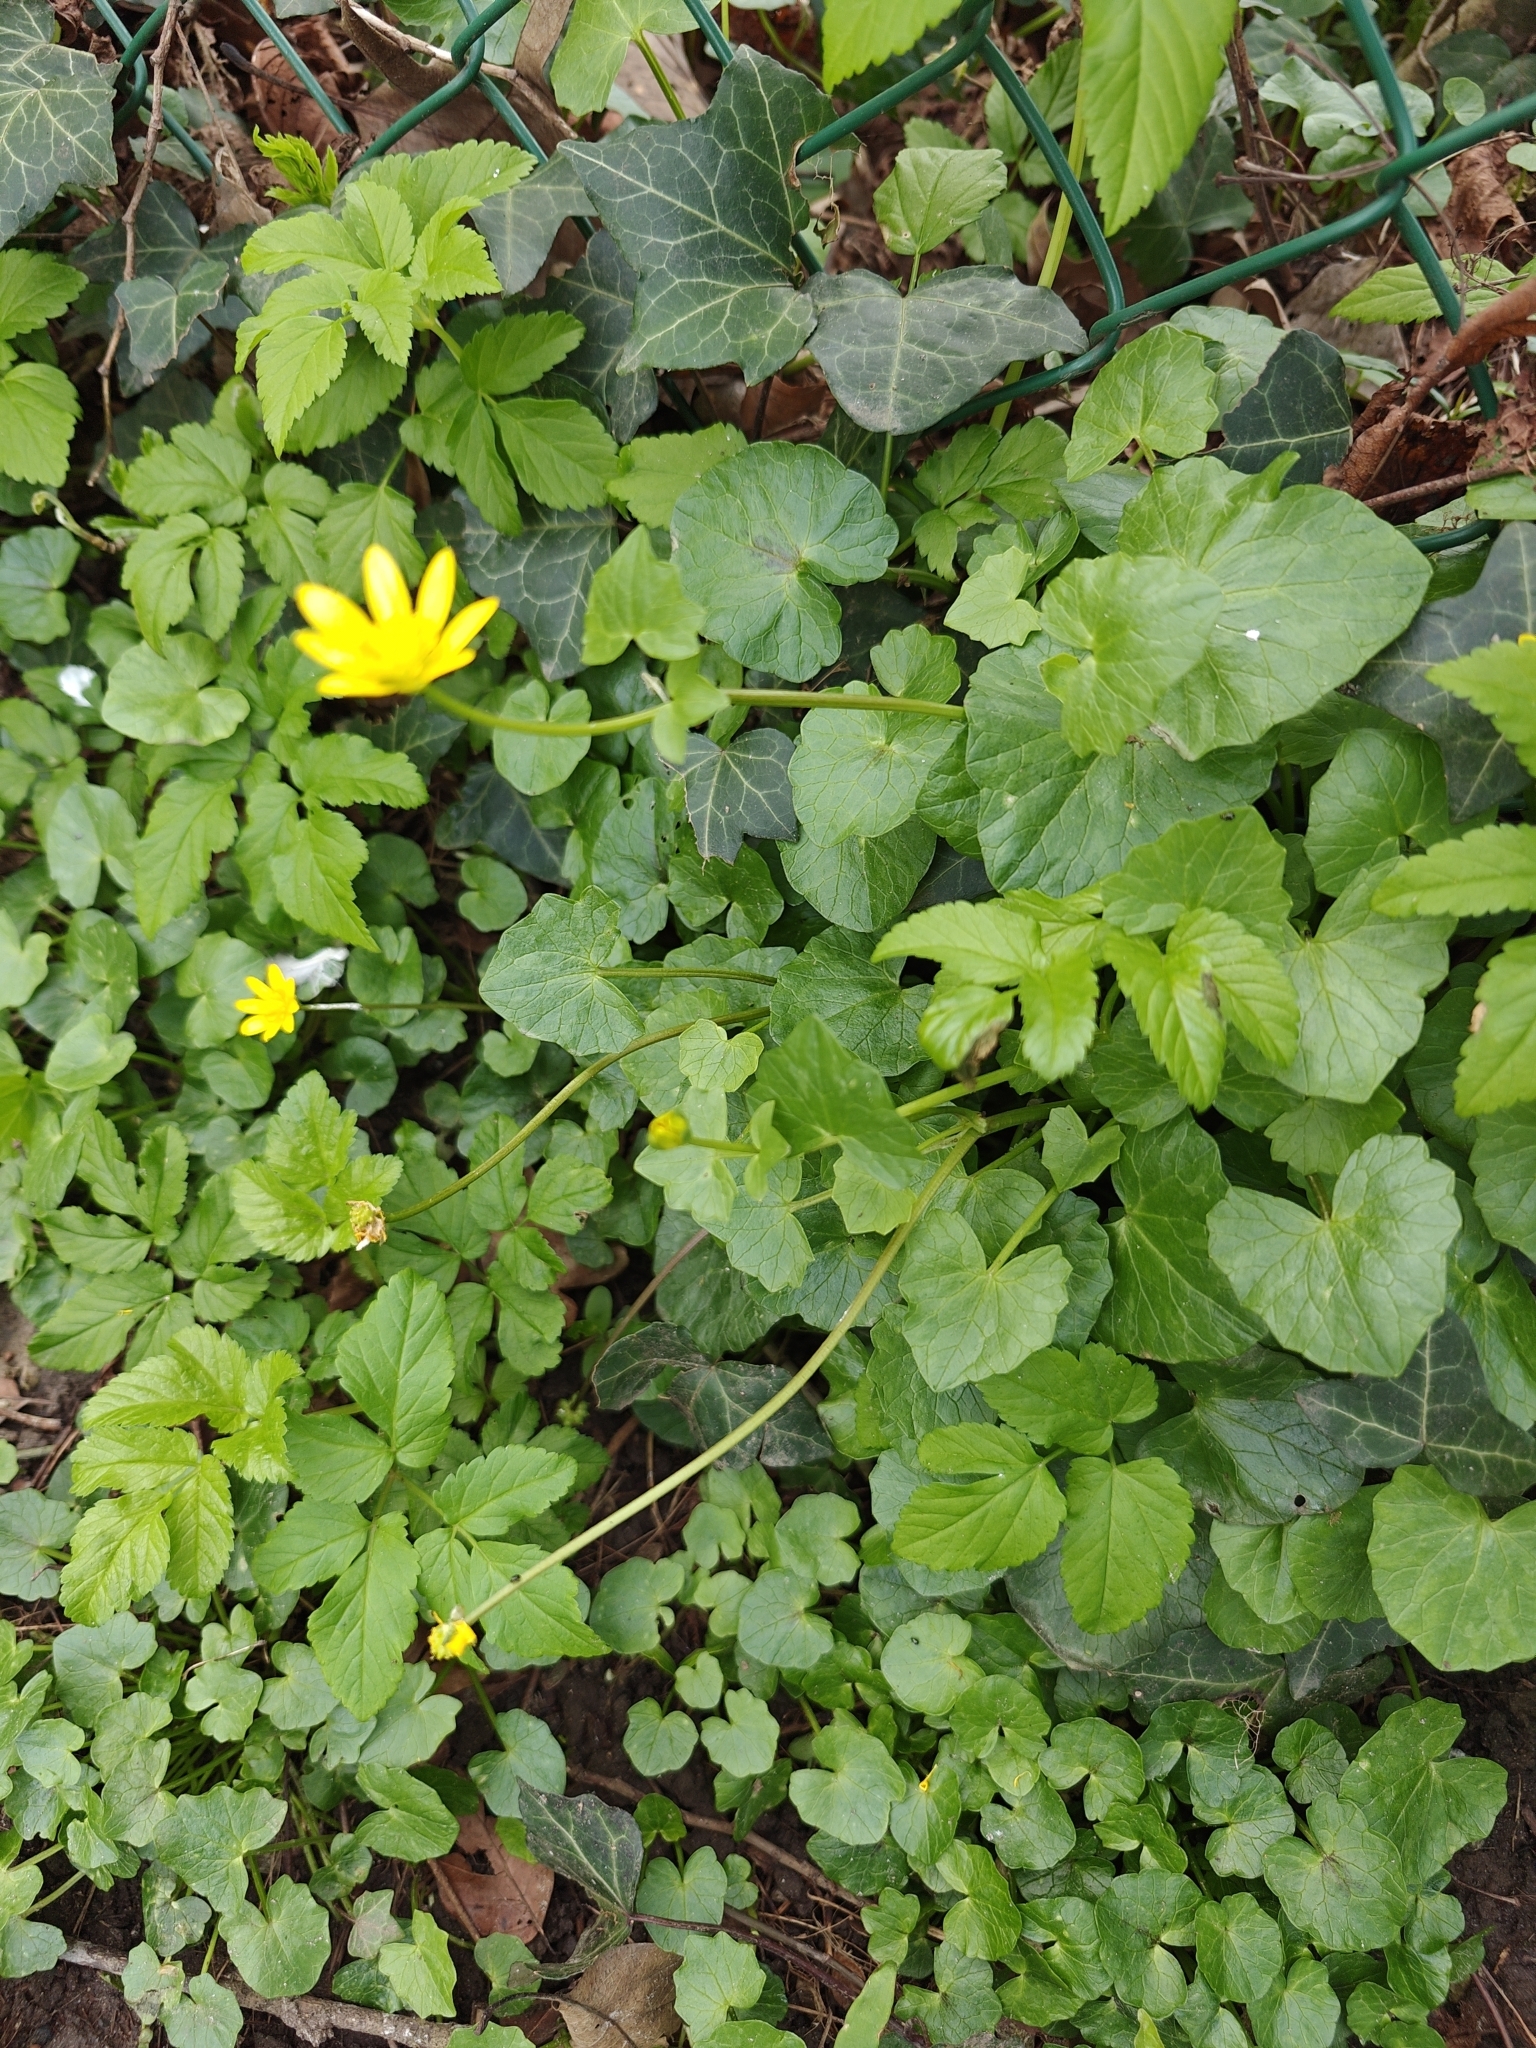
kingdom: Plantae
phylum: Tracheophyta
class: Magnoliopsida
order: Ranunculales
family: Ranunculaceae
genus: Ficaria
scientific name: Ficaria verna
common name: Lesser celandine
